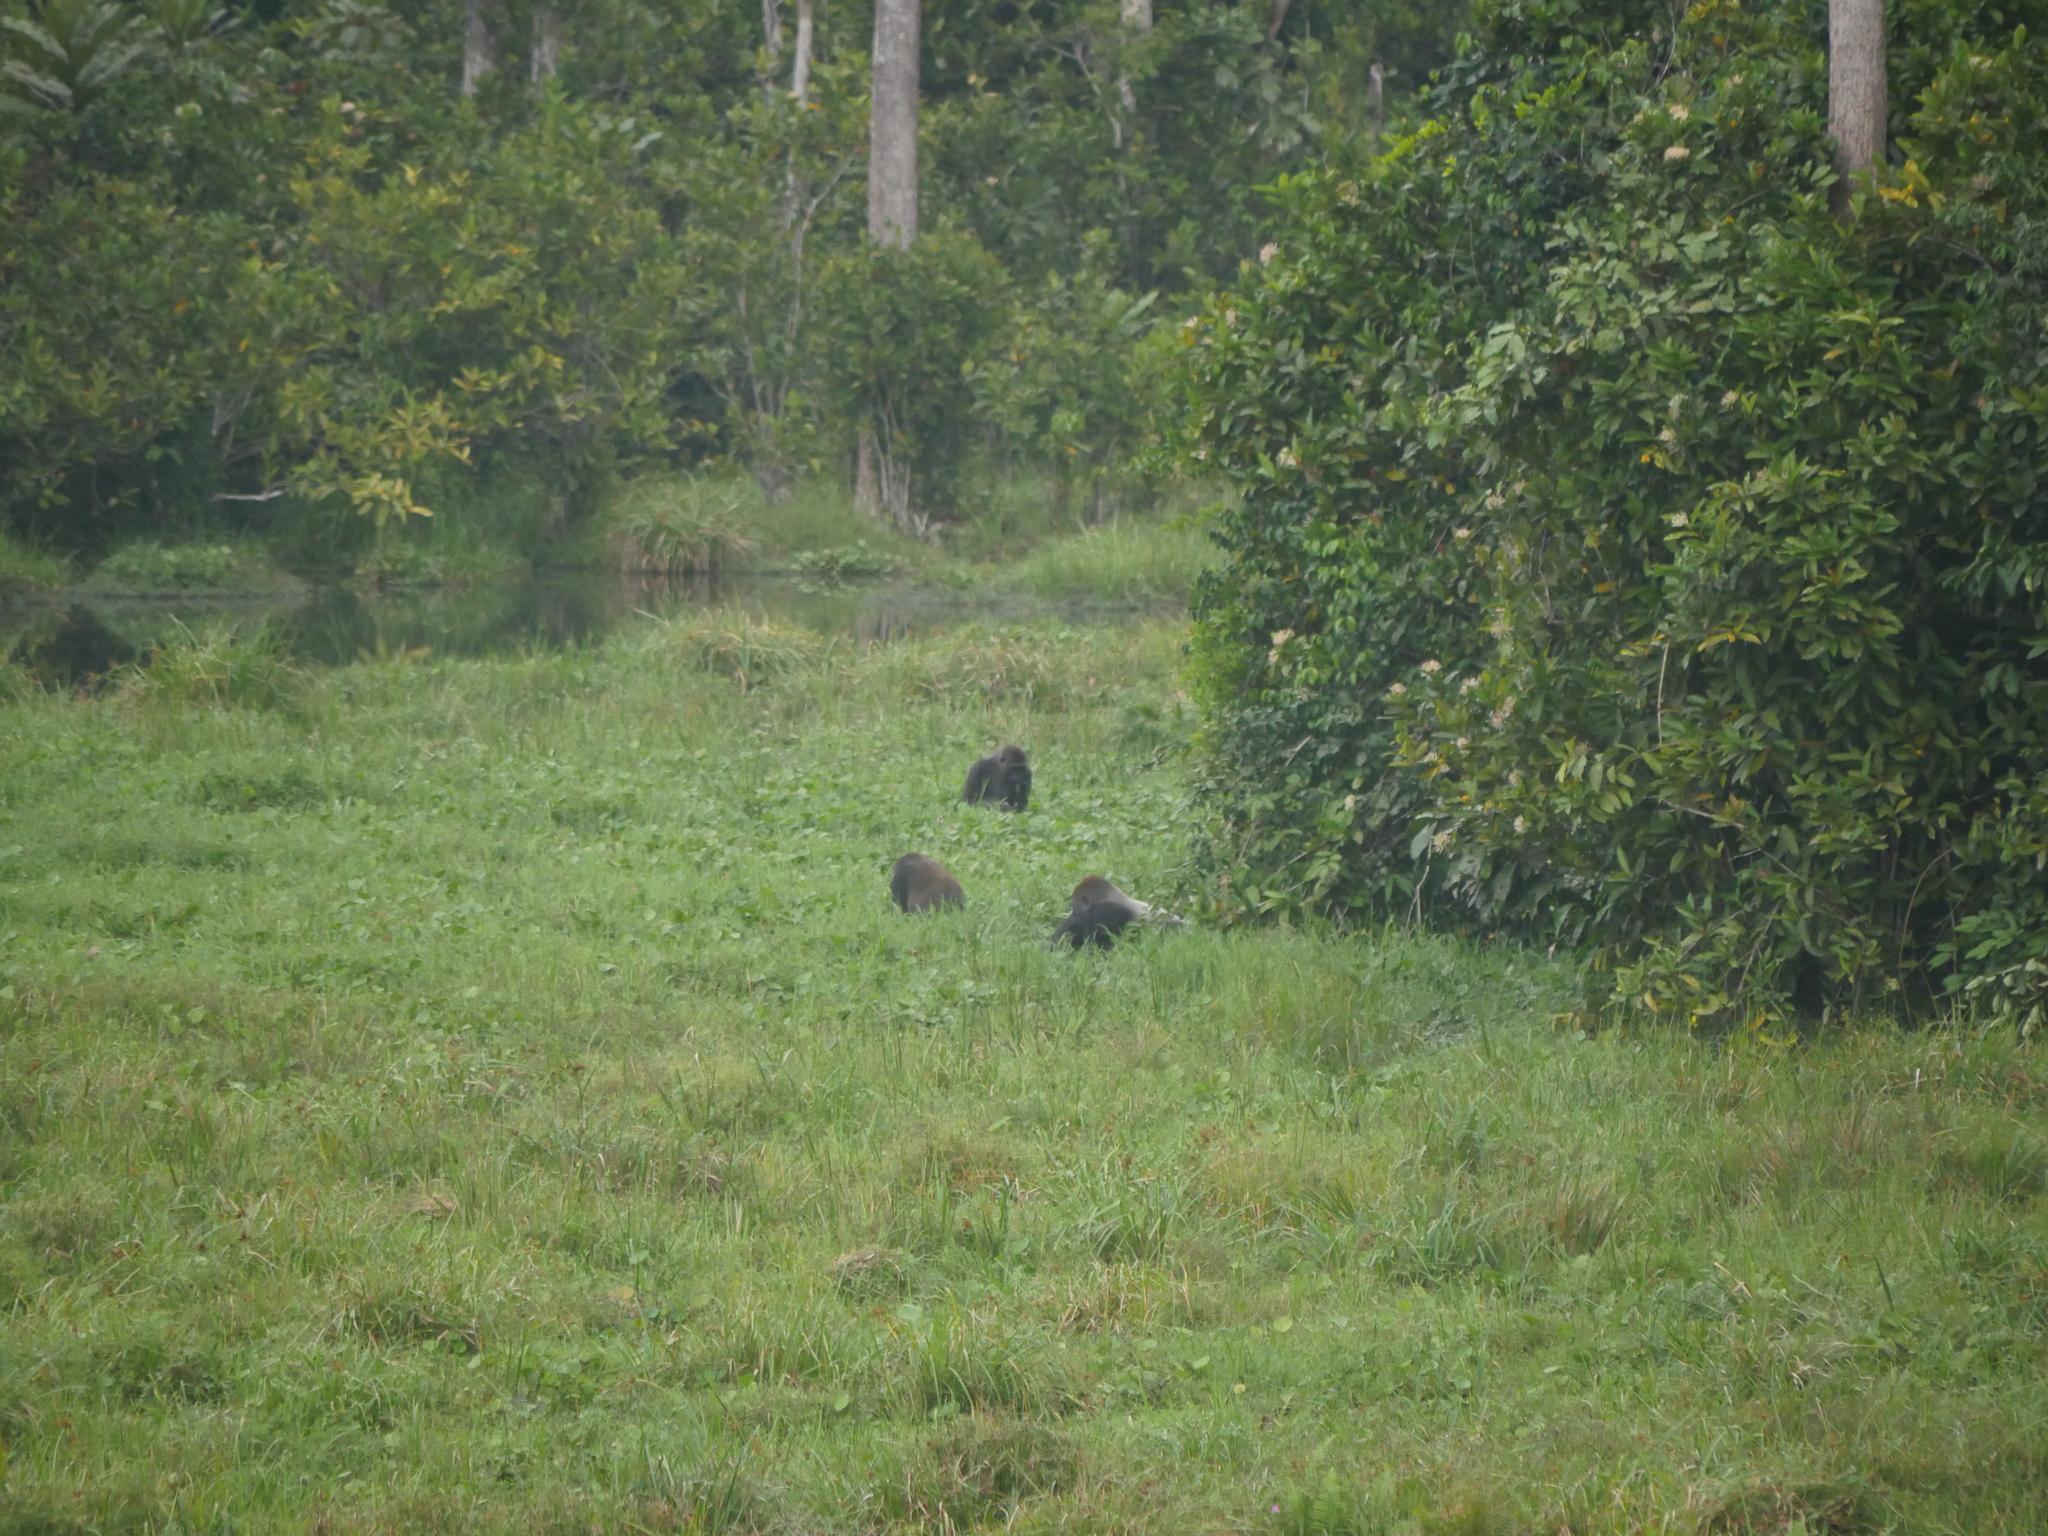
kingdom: Animalia
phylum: Chordata
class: Mammalia
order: Primates
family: Hominidae
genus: Gorilla
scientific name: Gorilla gorilla
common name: Western gorilla
